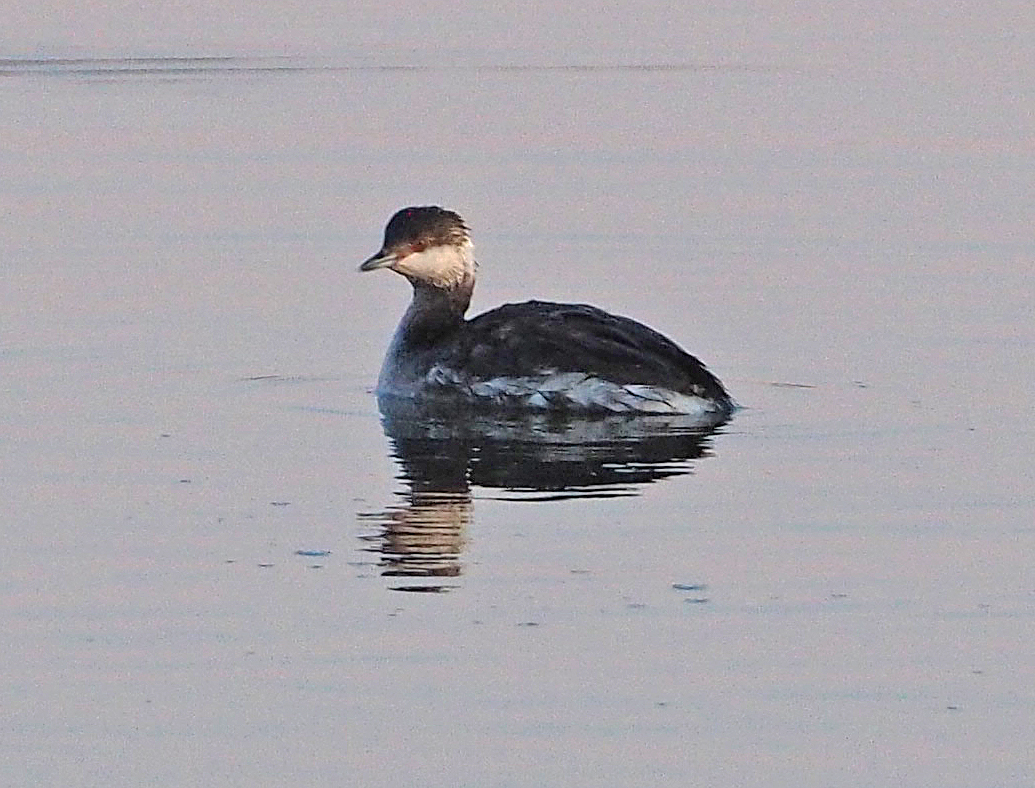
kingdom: Animalia
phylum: Chordata
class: Aves
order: Podicipediformes
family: Podicipedidae
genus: Podiceps
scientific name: Podiceps auritus
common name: Horned grebe
